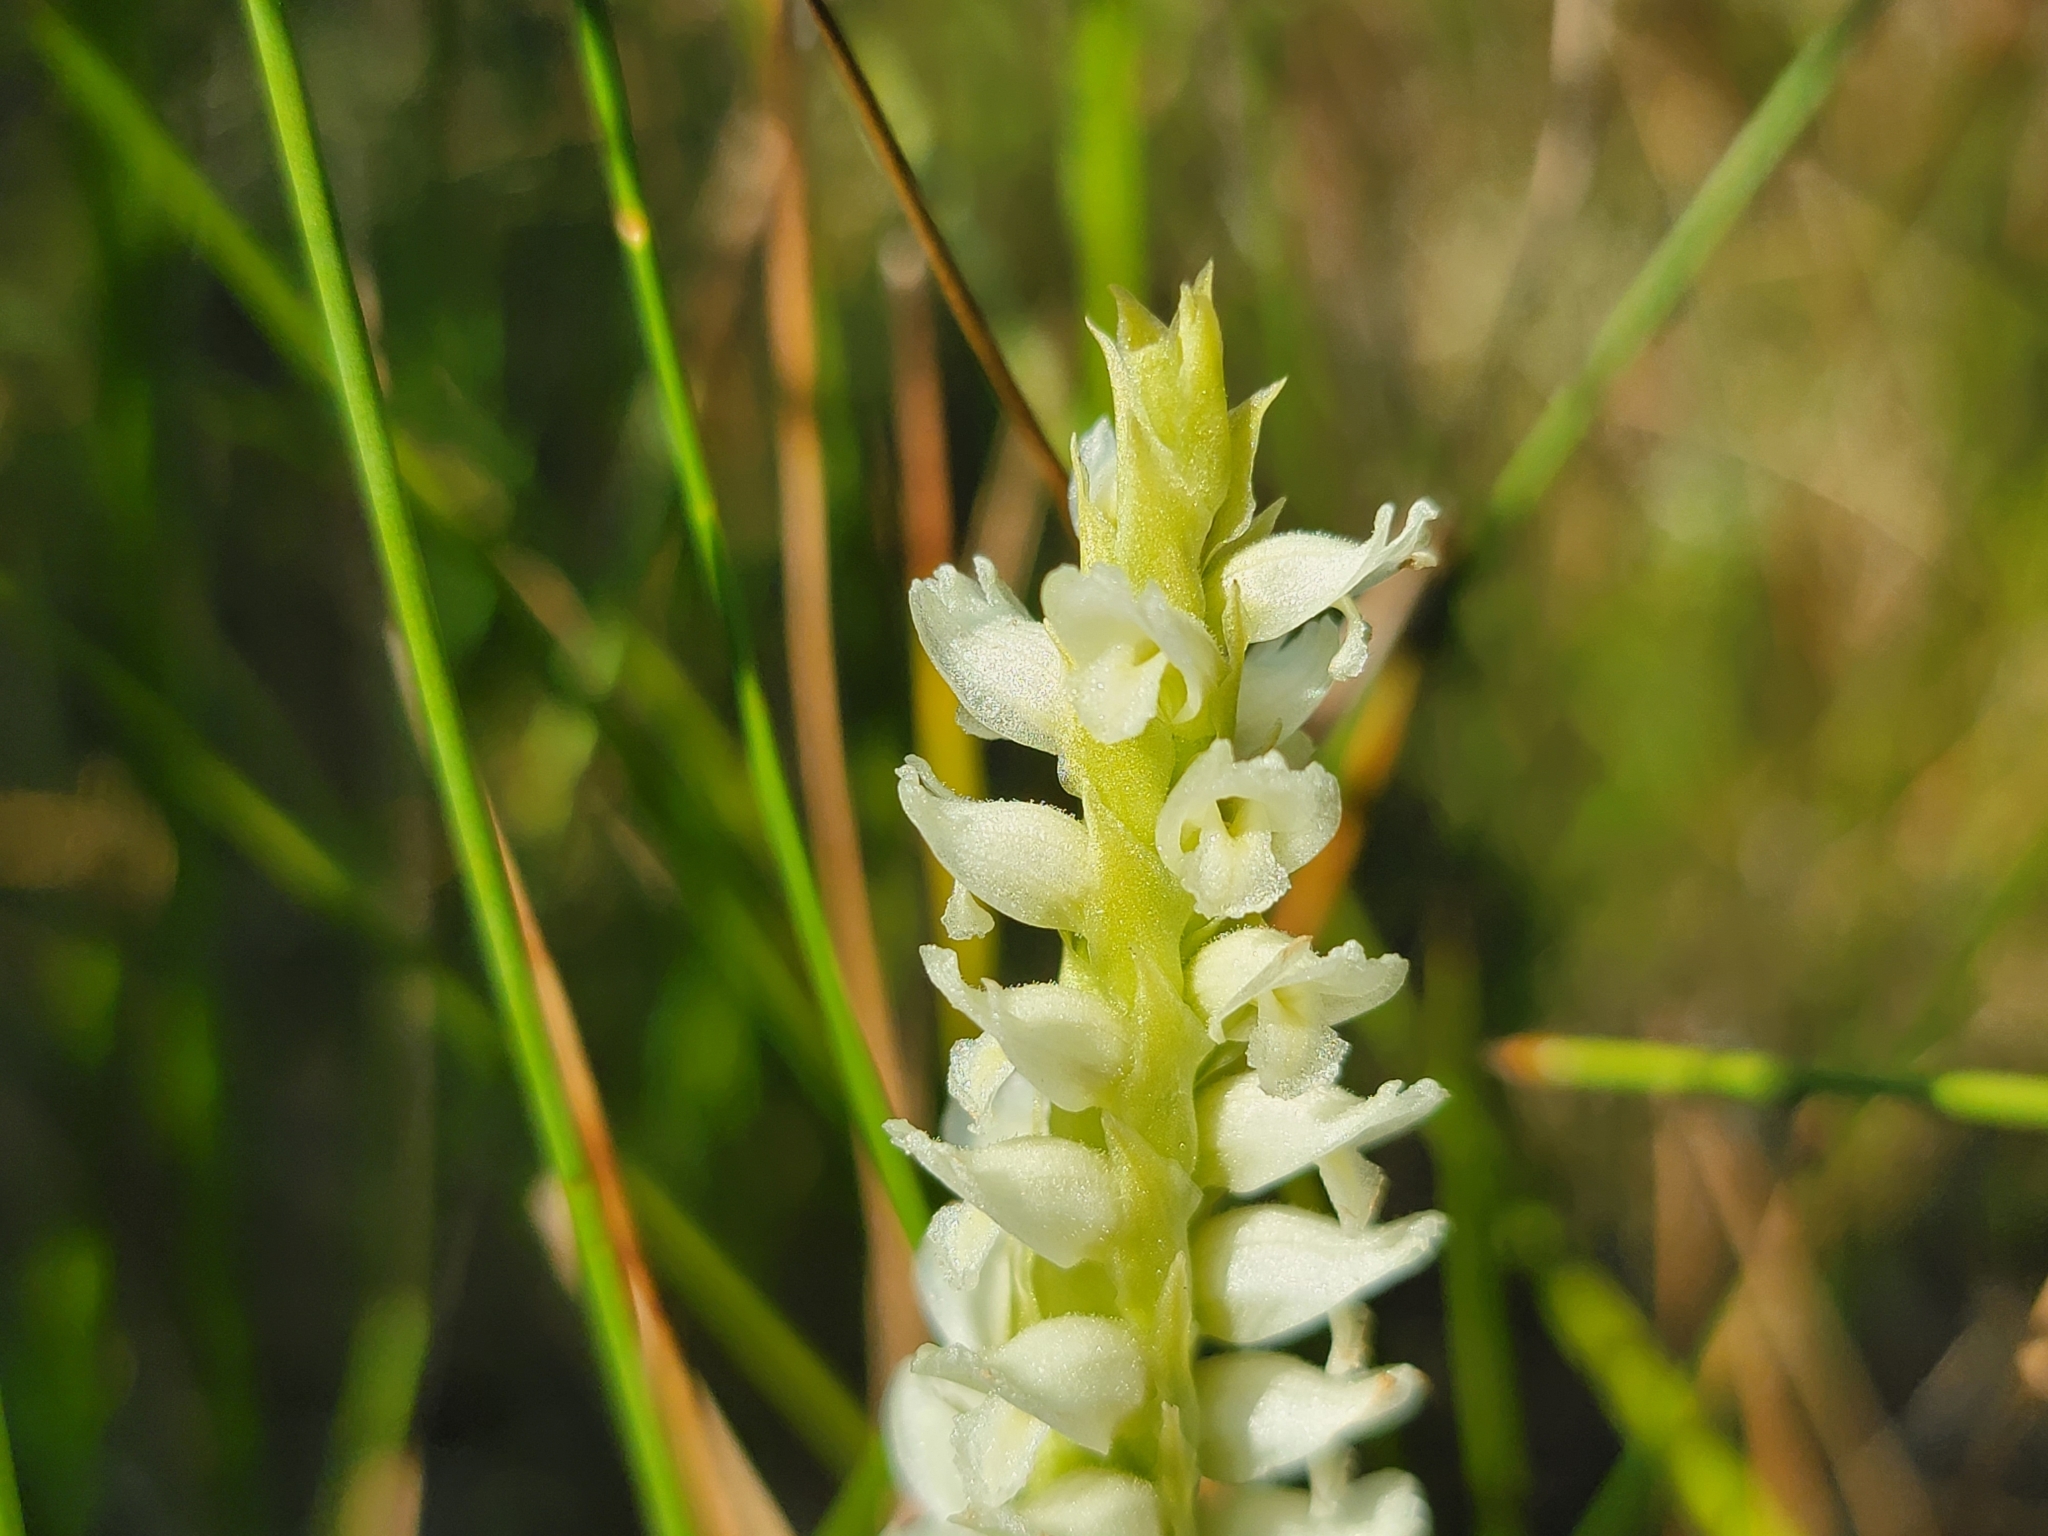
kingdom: Plantae
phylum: Tracheophyta
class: Liliopsida
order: Asparagales
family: Orchidaceae
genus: Spiranthes
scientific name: Spiranthes romanzoffiana
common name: Irish lady's-tresses
